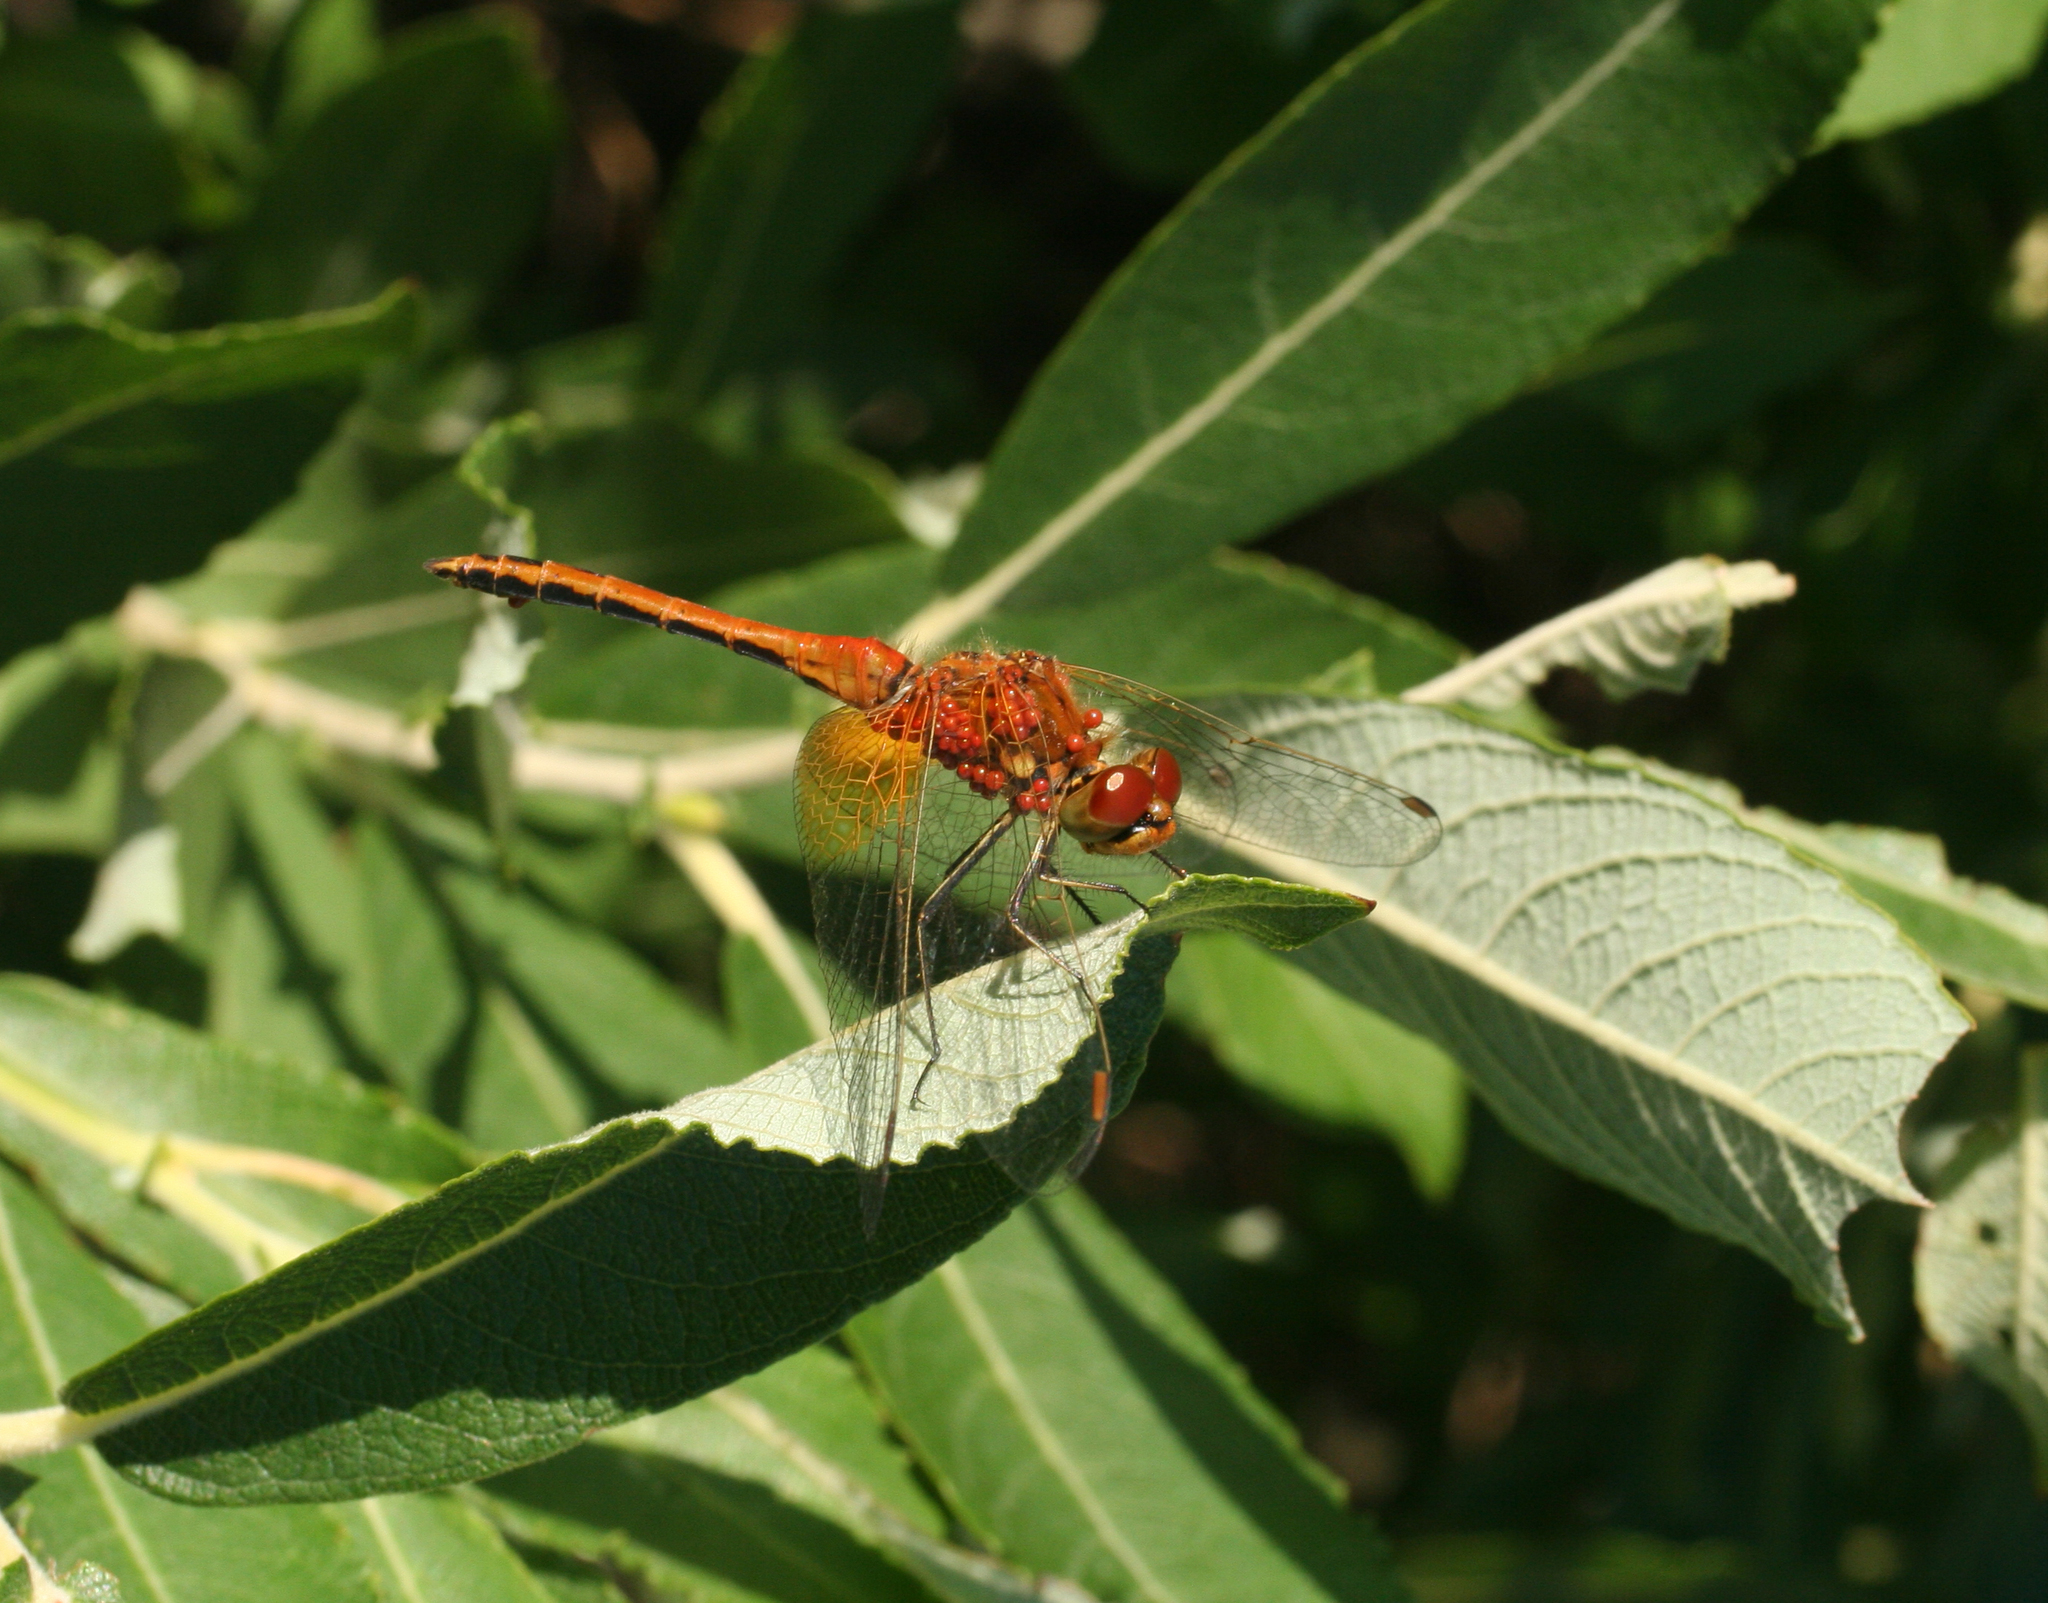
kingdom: Animalia
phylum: Arthropoda
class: Insecta
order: Odonata
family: Libellulidae
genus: Sympetrum
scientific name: Sympetrum flaveolum
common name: Yellow-winged darter
